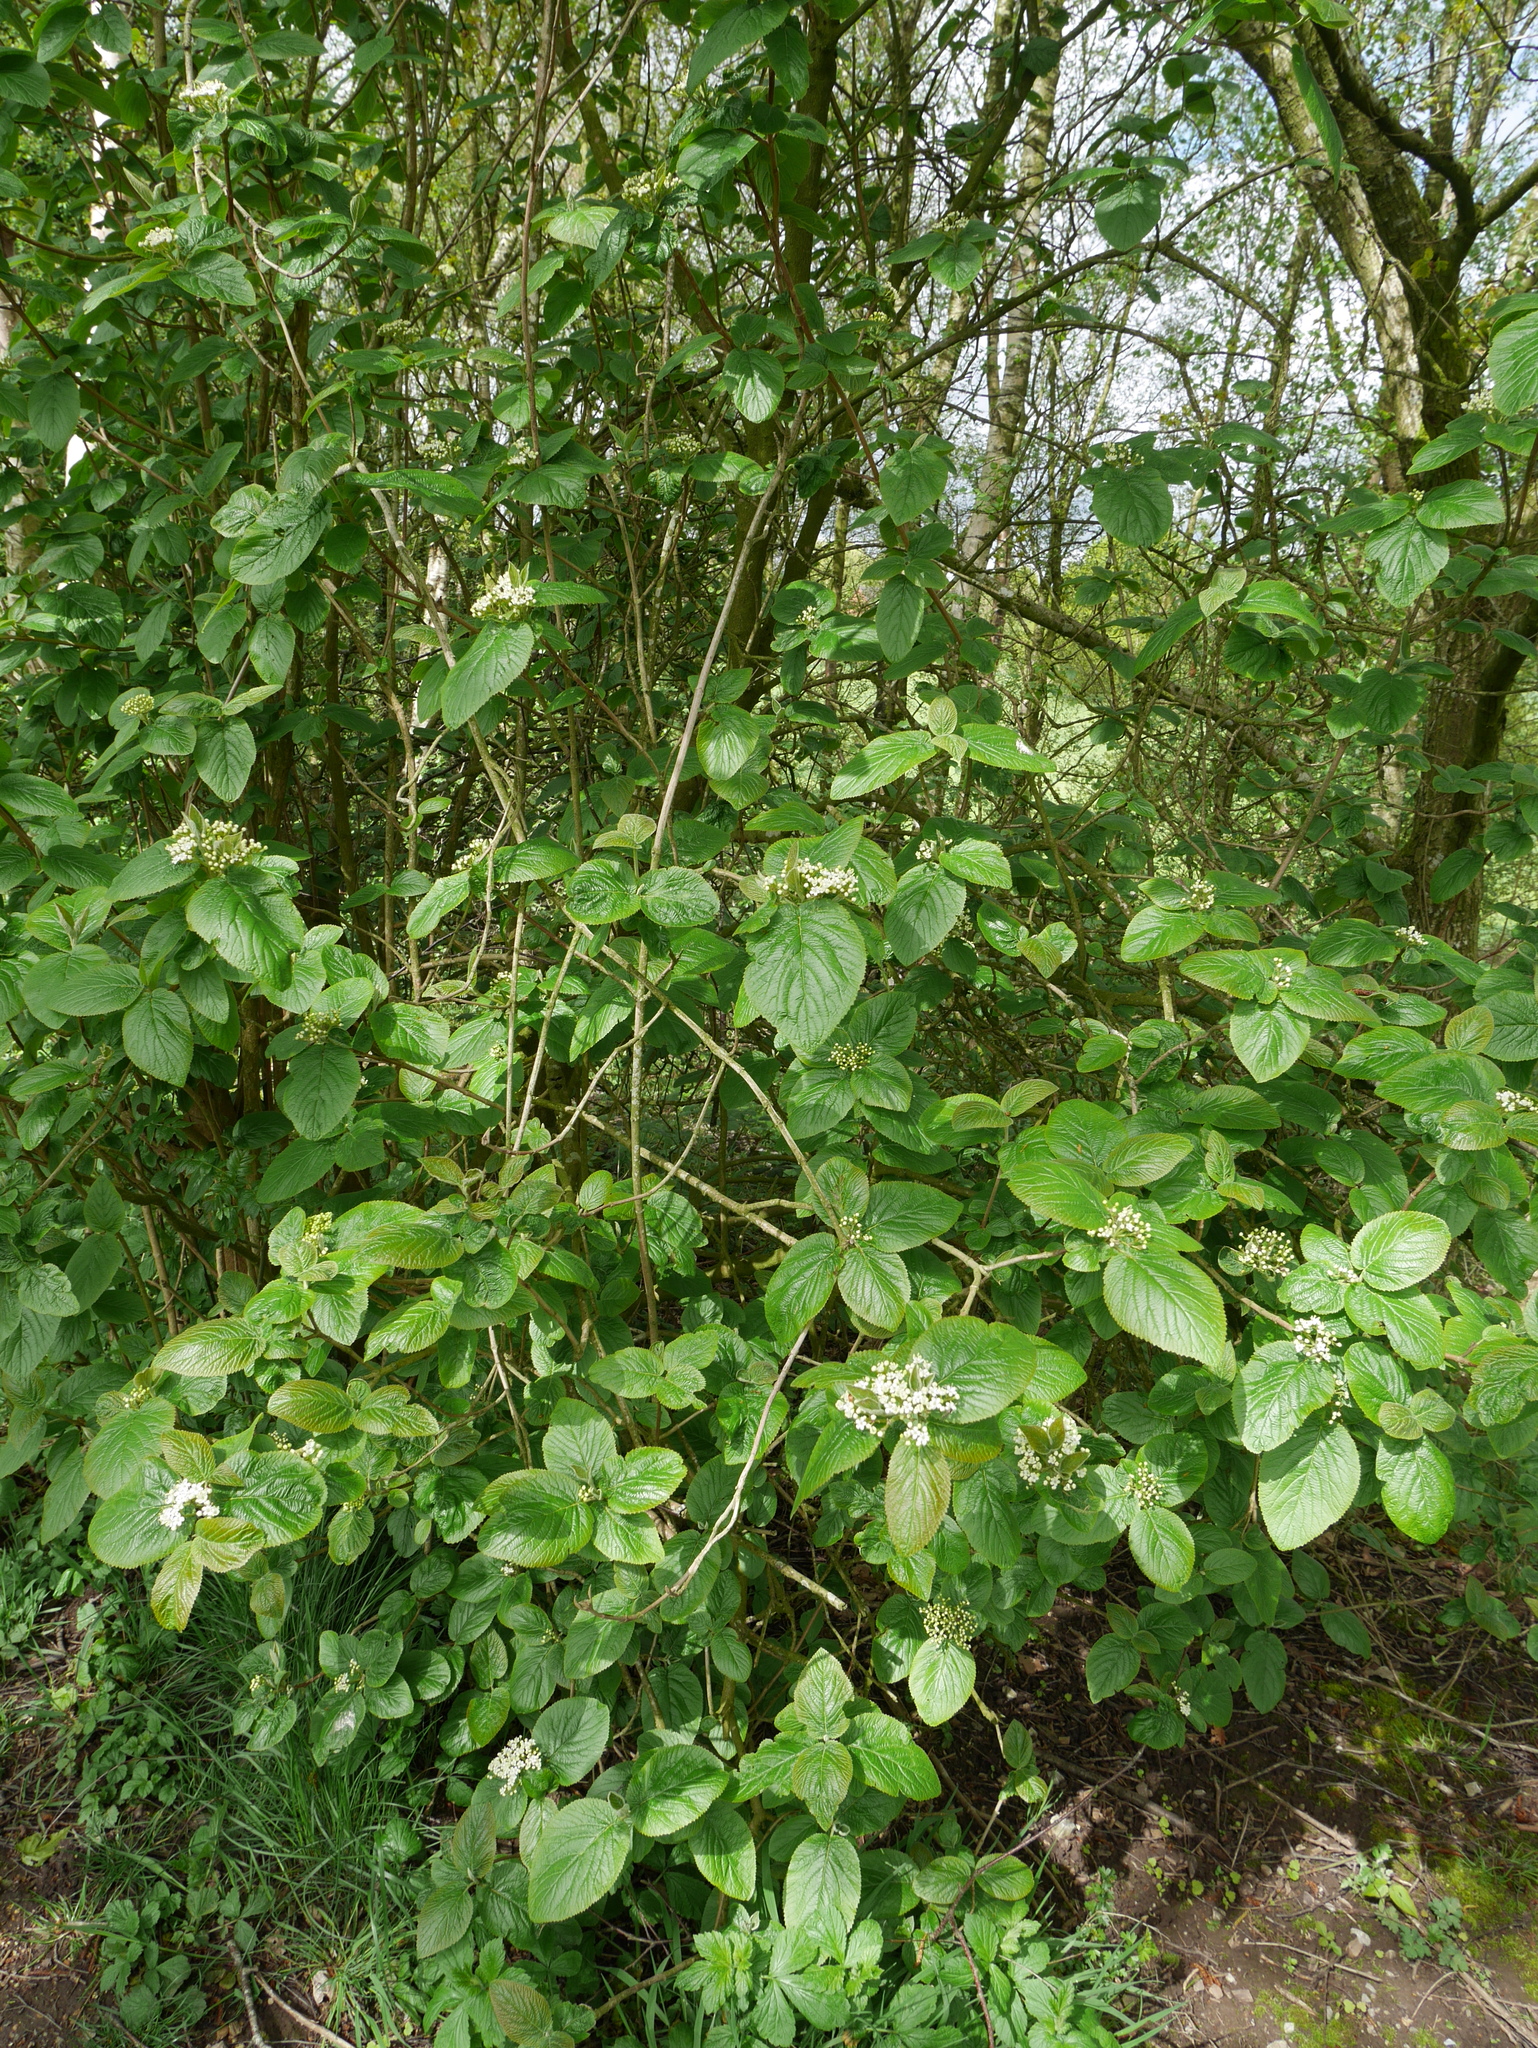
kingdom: Plantae
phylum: Tracheophyta
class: Magnoliopsida
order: Dipsacales
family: Viburnaceae
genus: Viburnum
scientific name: Viburnum lantana
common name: Wayfaring tree
